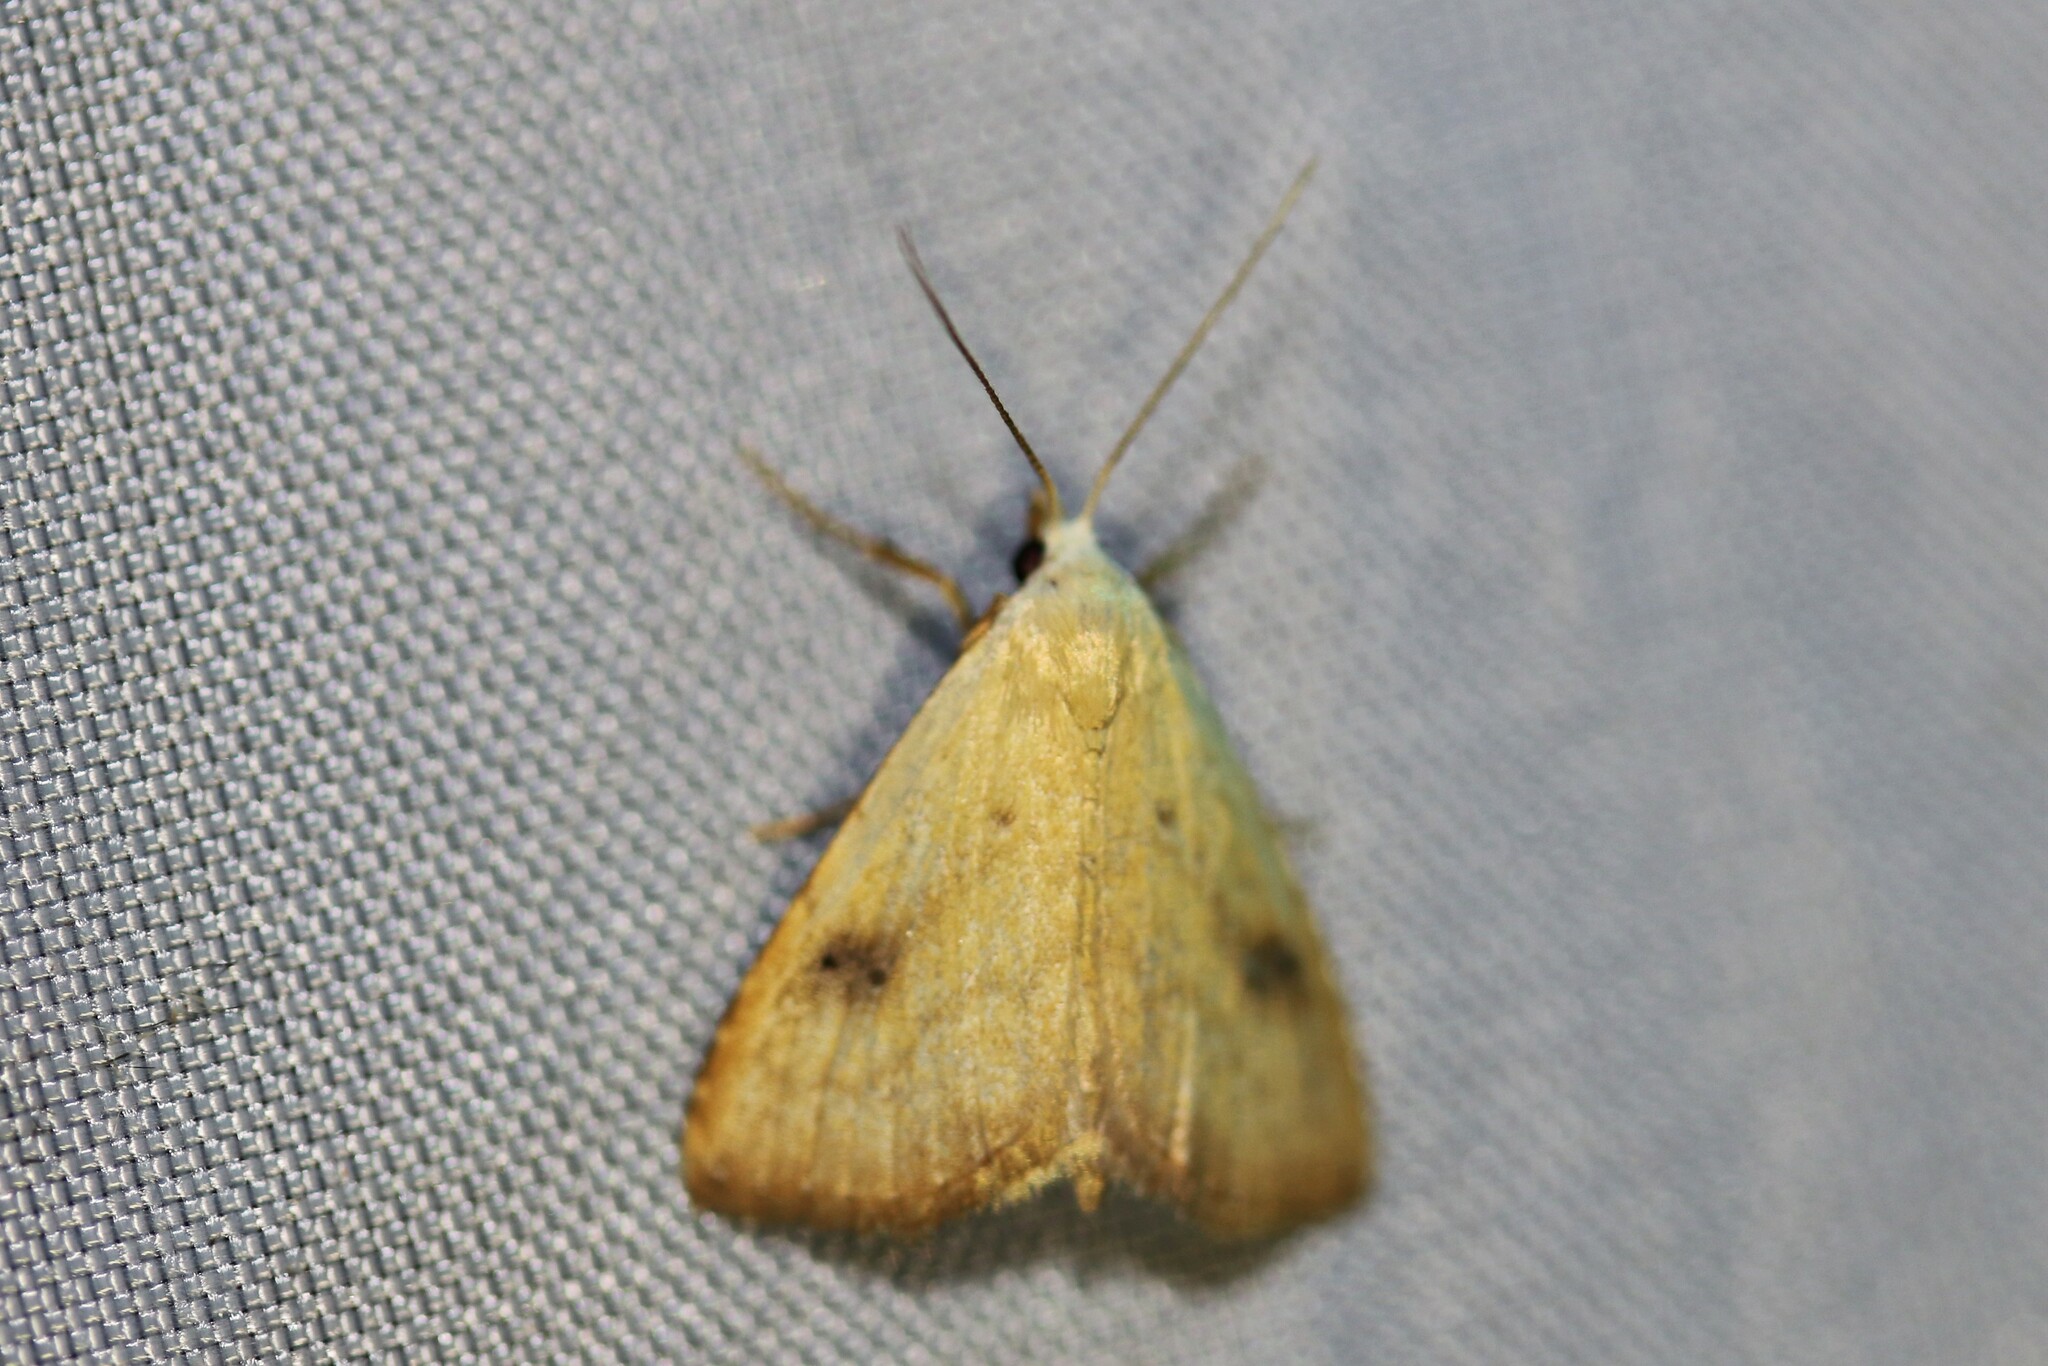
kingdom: Animalia
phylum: Arthropoda
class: Insecta
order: Lepidoptera
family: Erebidae
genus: Rivula
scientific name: Rivula sericealis
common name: Straw dot
